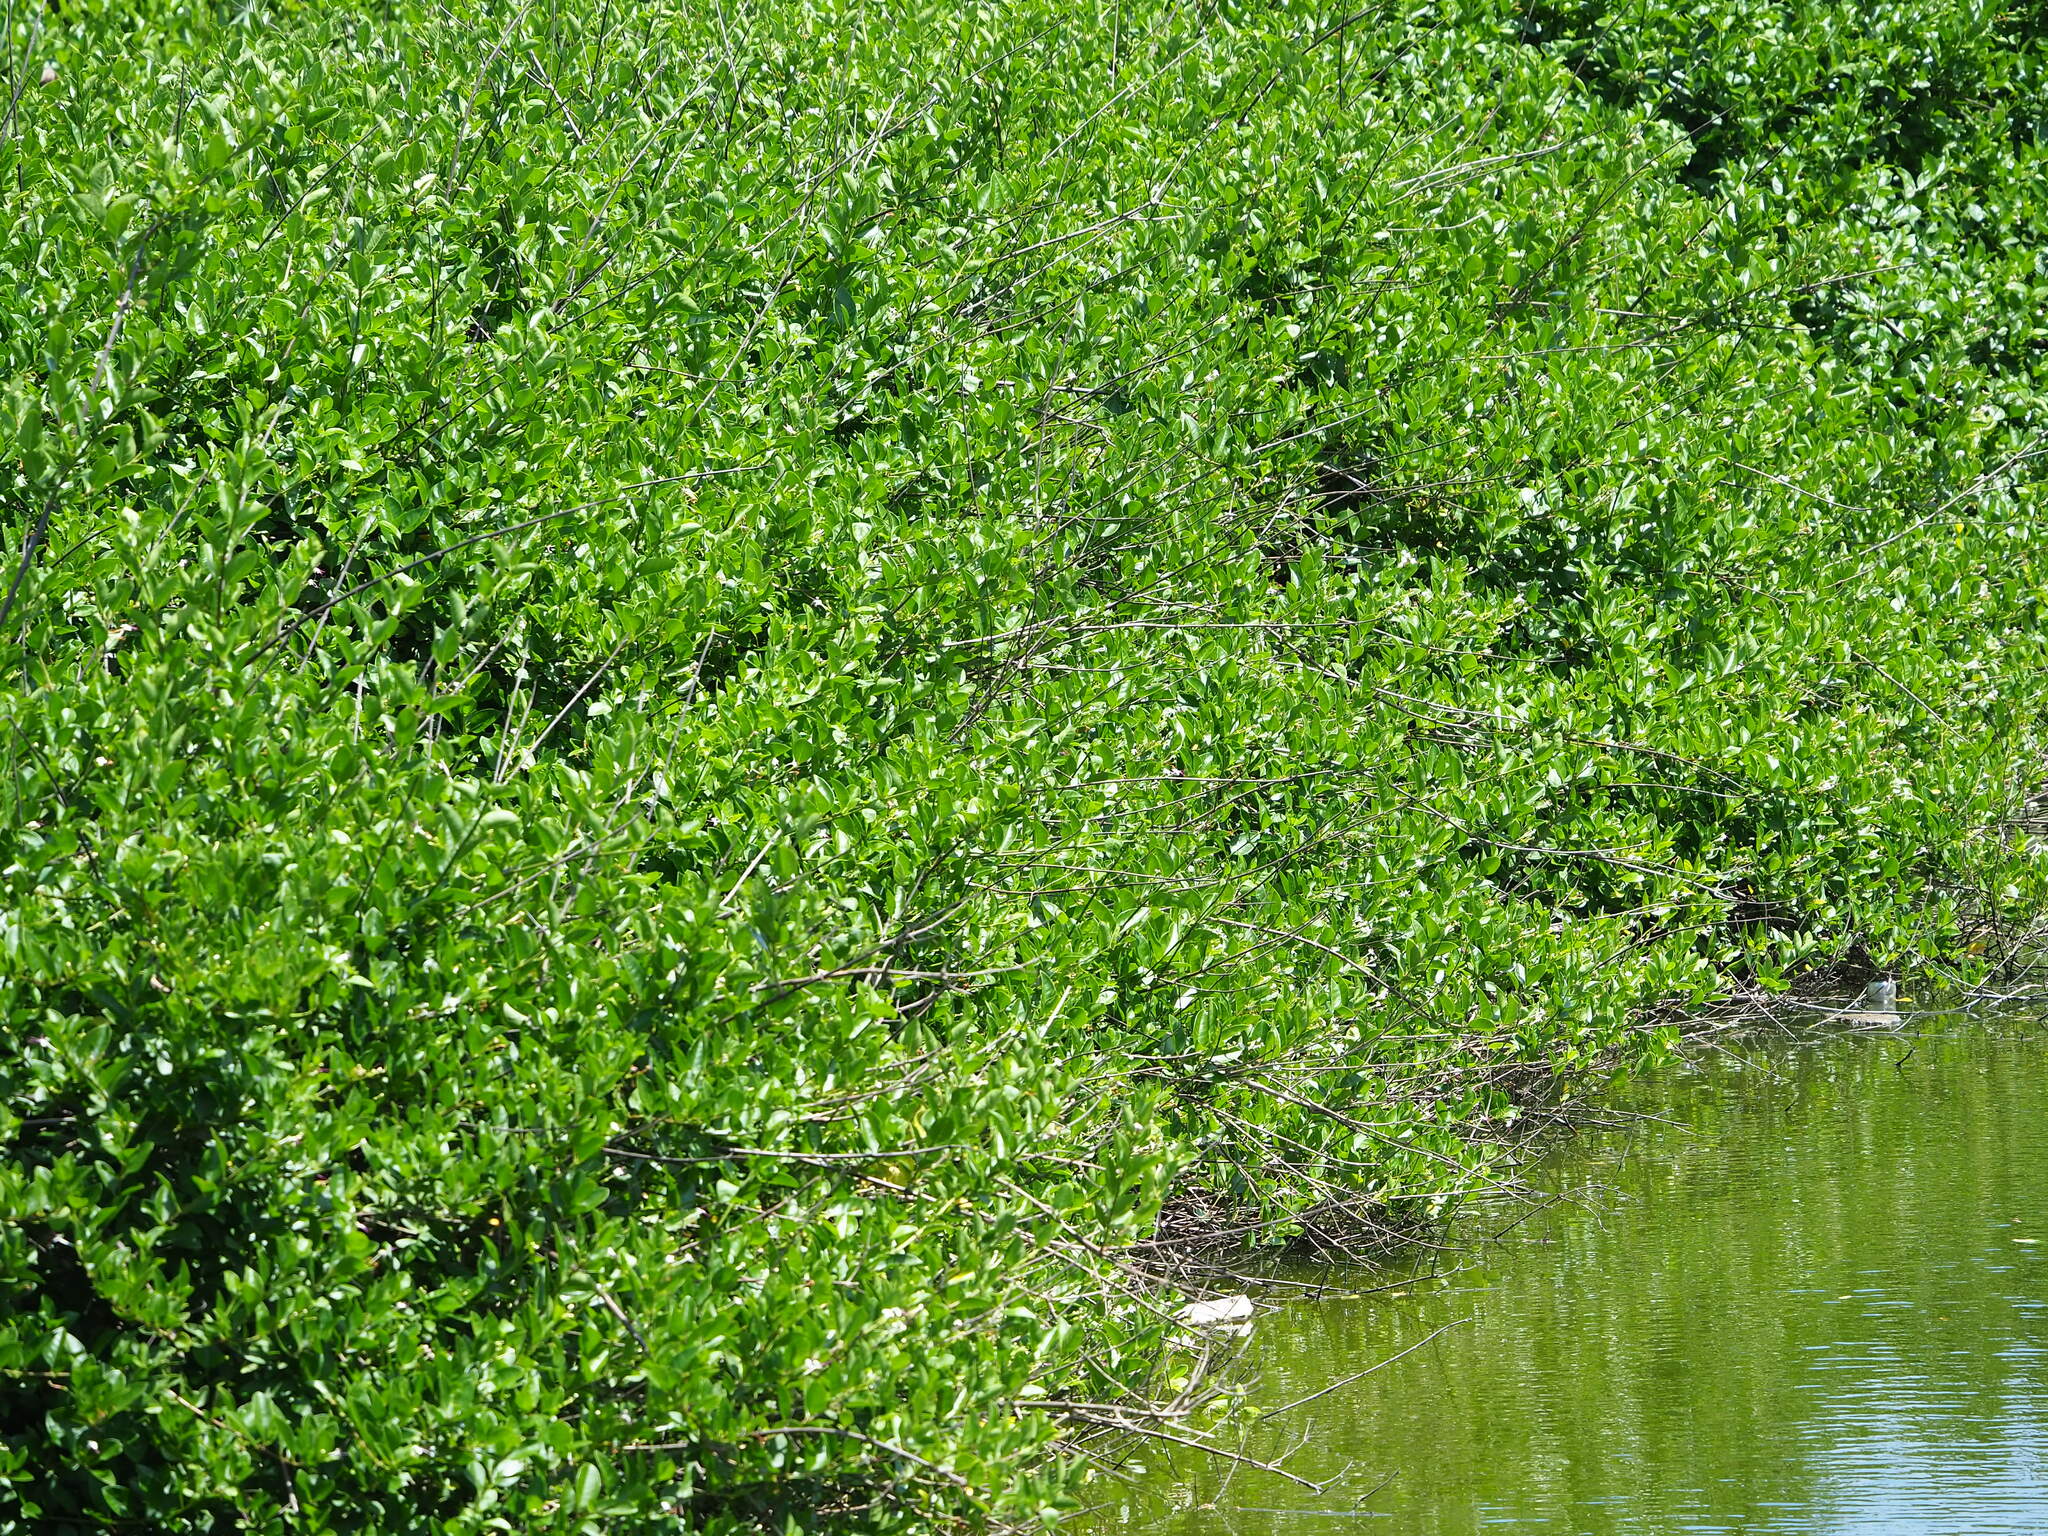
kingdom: Plantae
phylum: Tracheophyta
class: Magnoliopsida
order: Lamiales
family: Lamiaceae
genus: Volkameria
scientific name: Volkameria inermis
